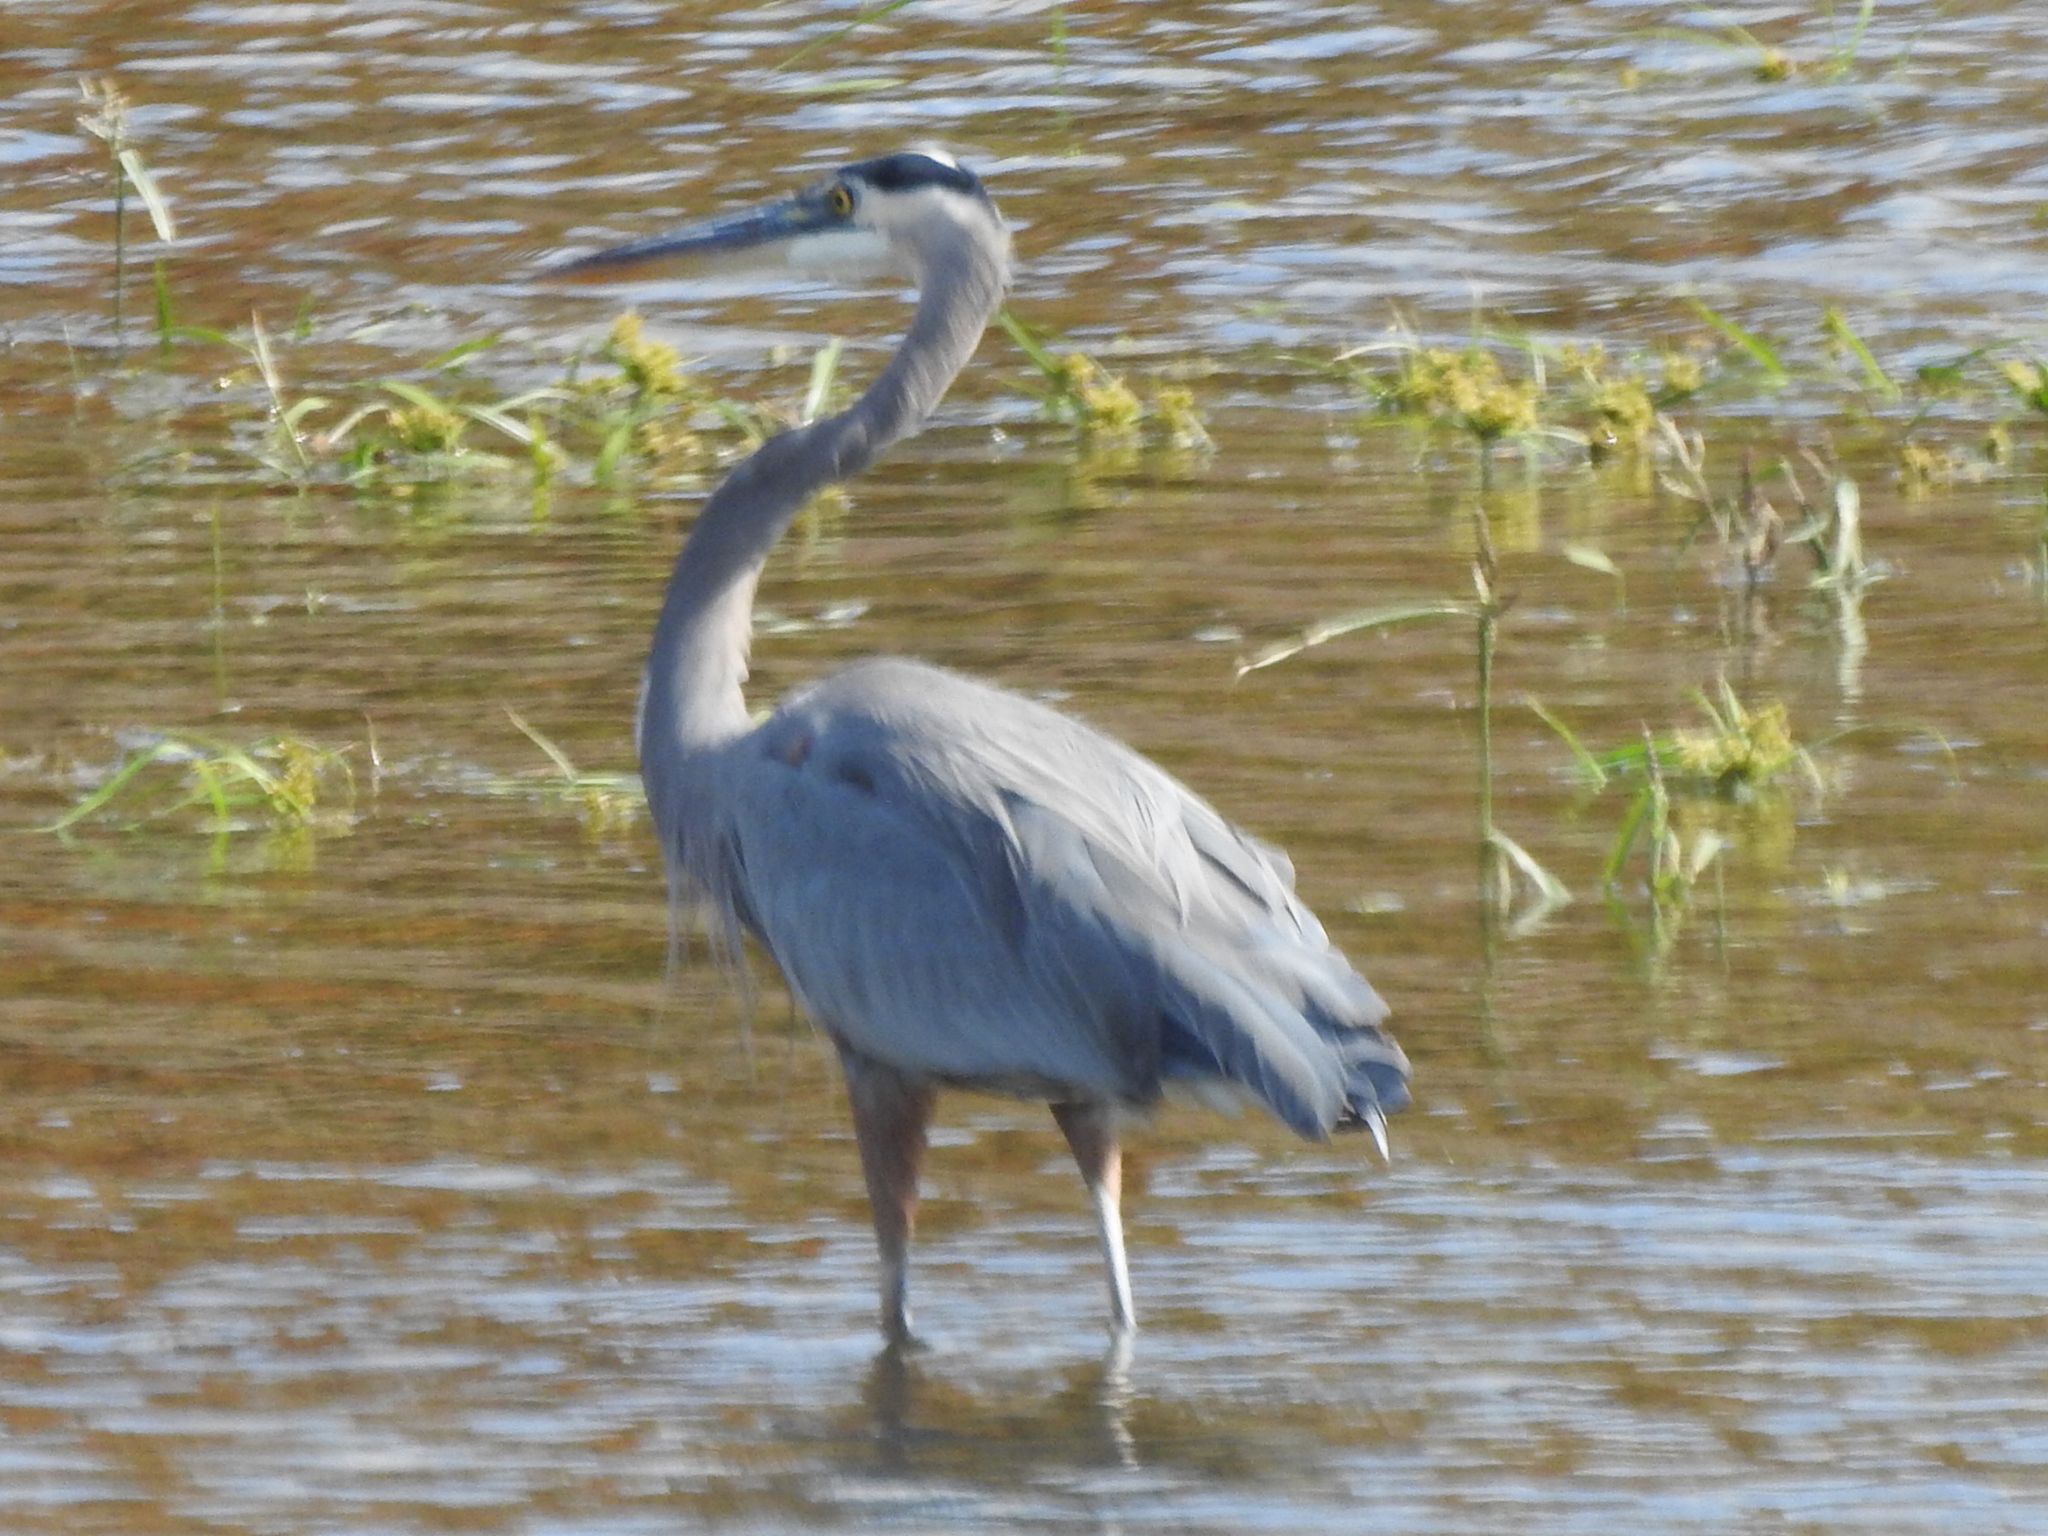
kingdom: Animalia
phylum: Chordata
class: Aves
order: Pelecaniformes
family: Ardeidae
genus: Ardea
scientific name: Ardea herodias
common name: Great blue heron
